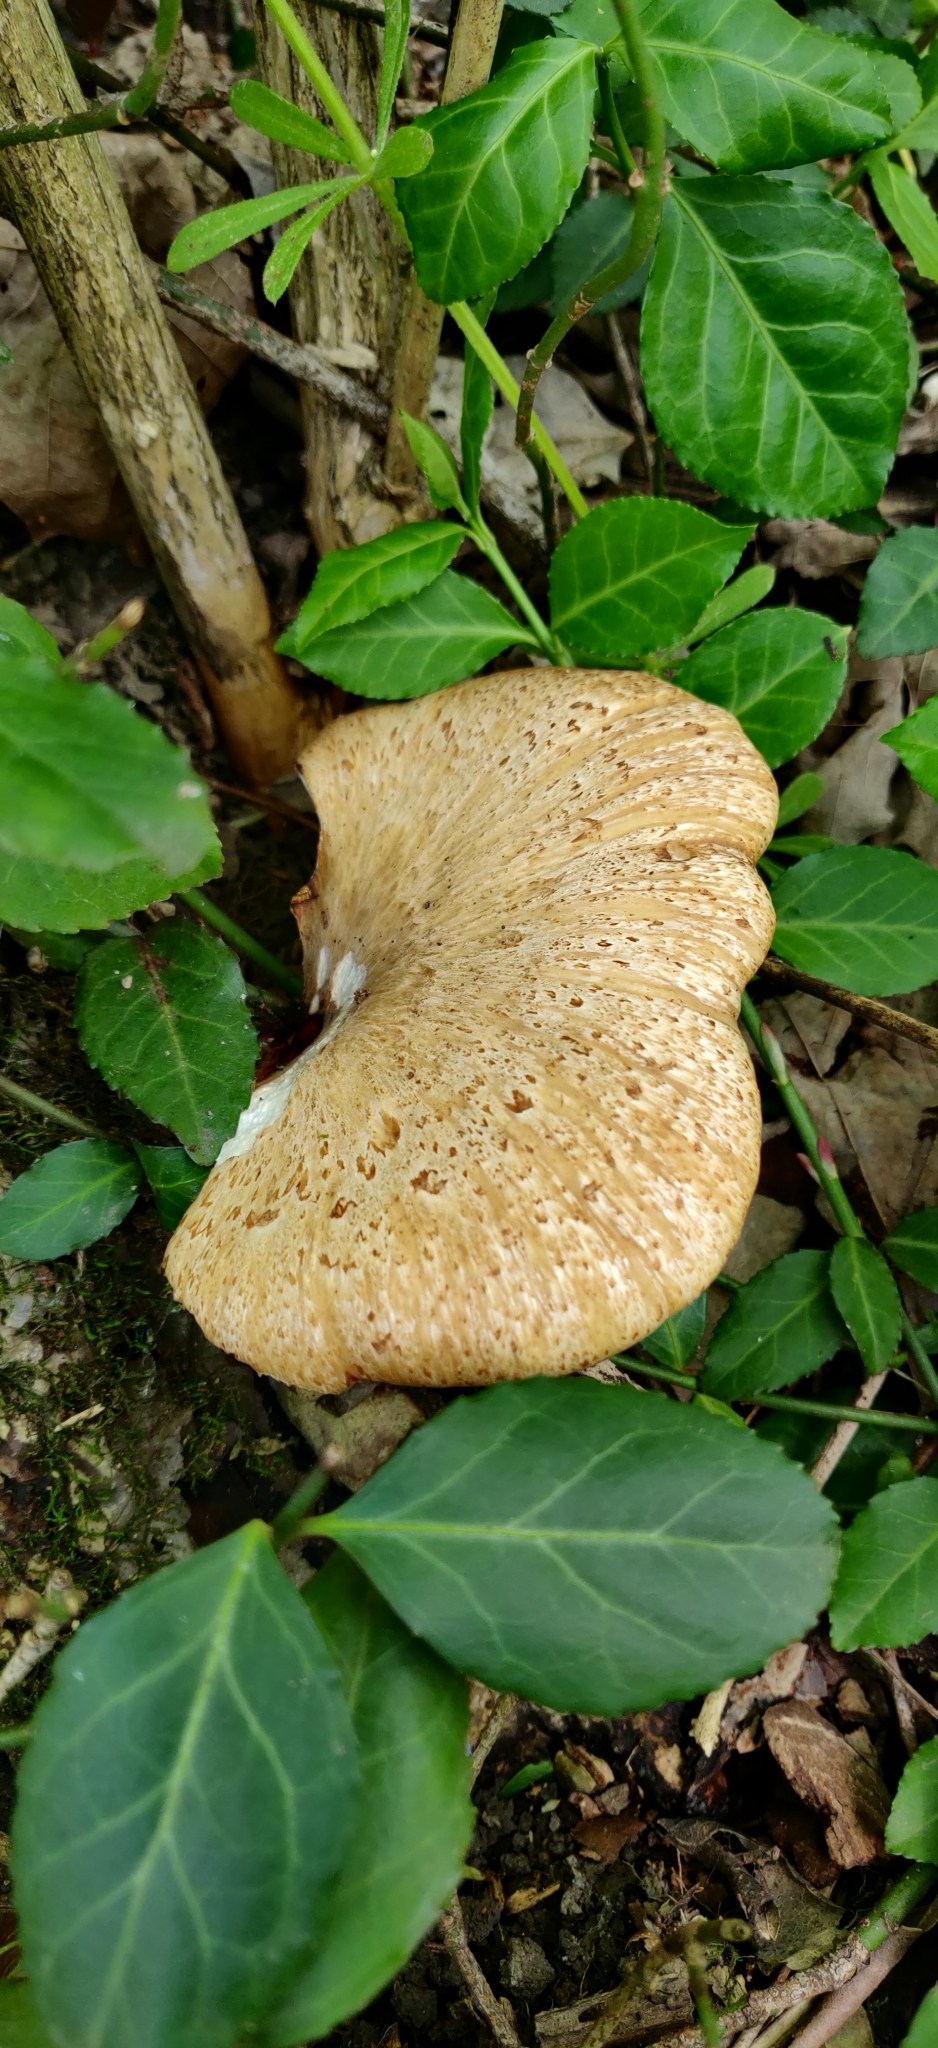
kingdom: Fungi
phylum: Basidiomycota
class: Agaricomycetes
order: Polyporales
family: Polyporaceae
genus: Cerioporus
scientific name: Cerioporus squamosus
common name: Dryad's saddle
